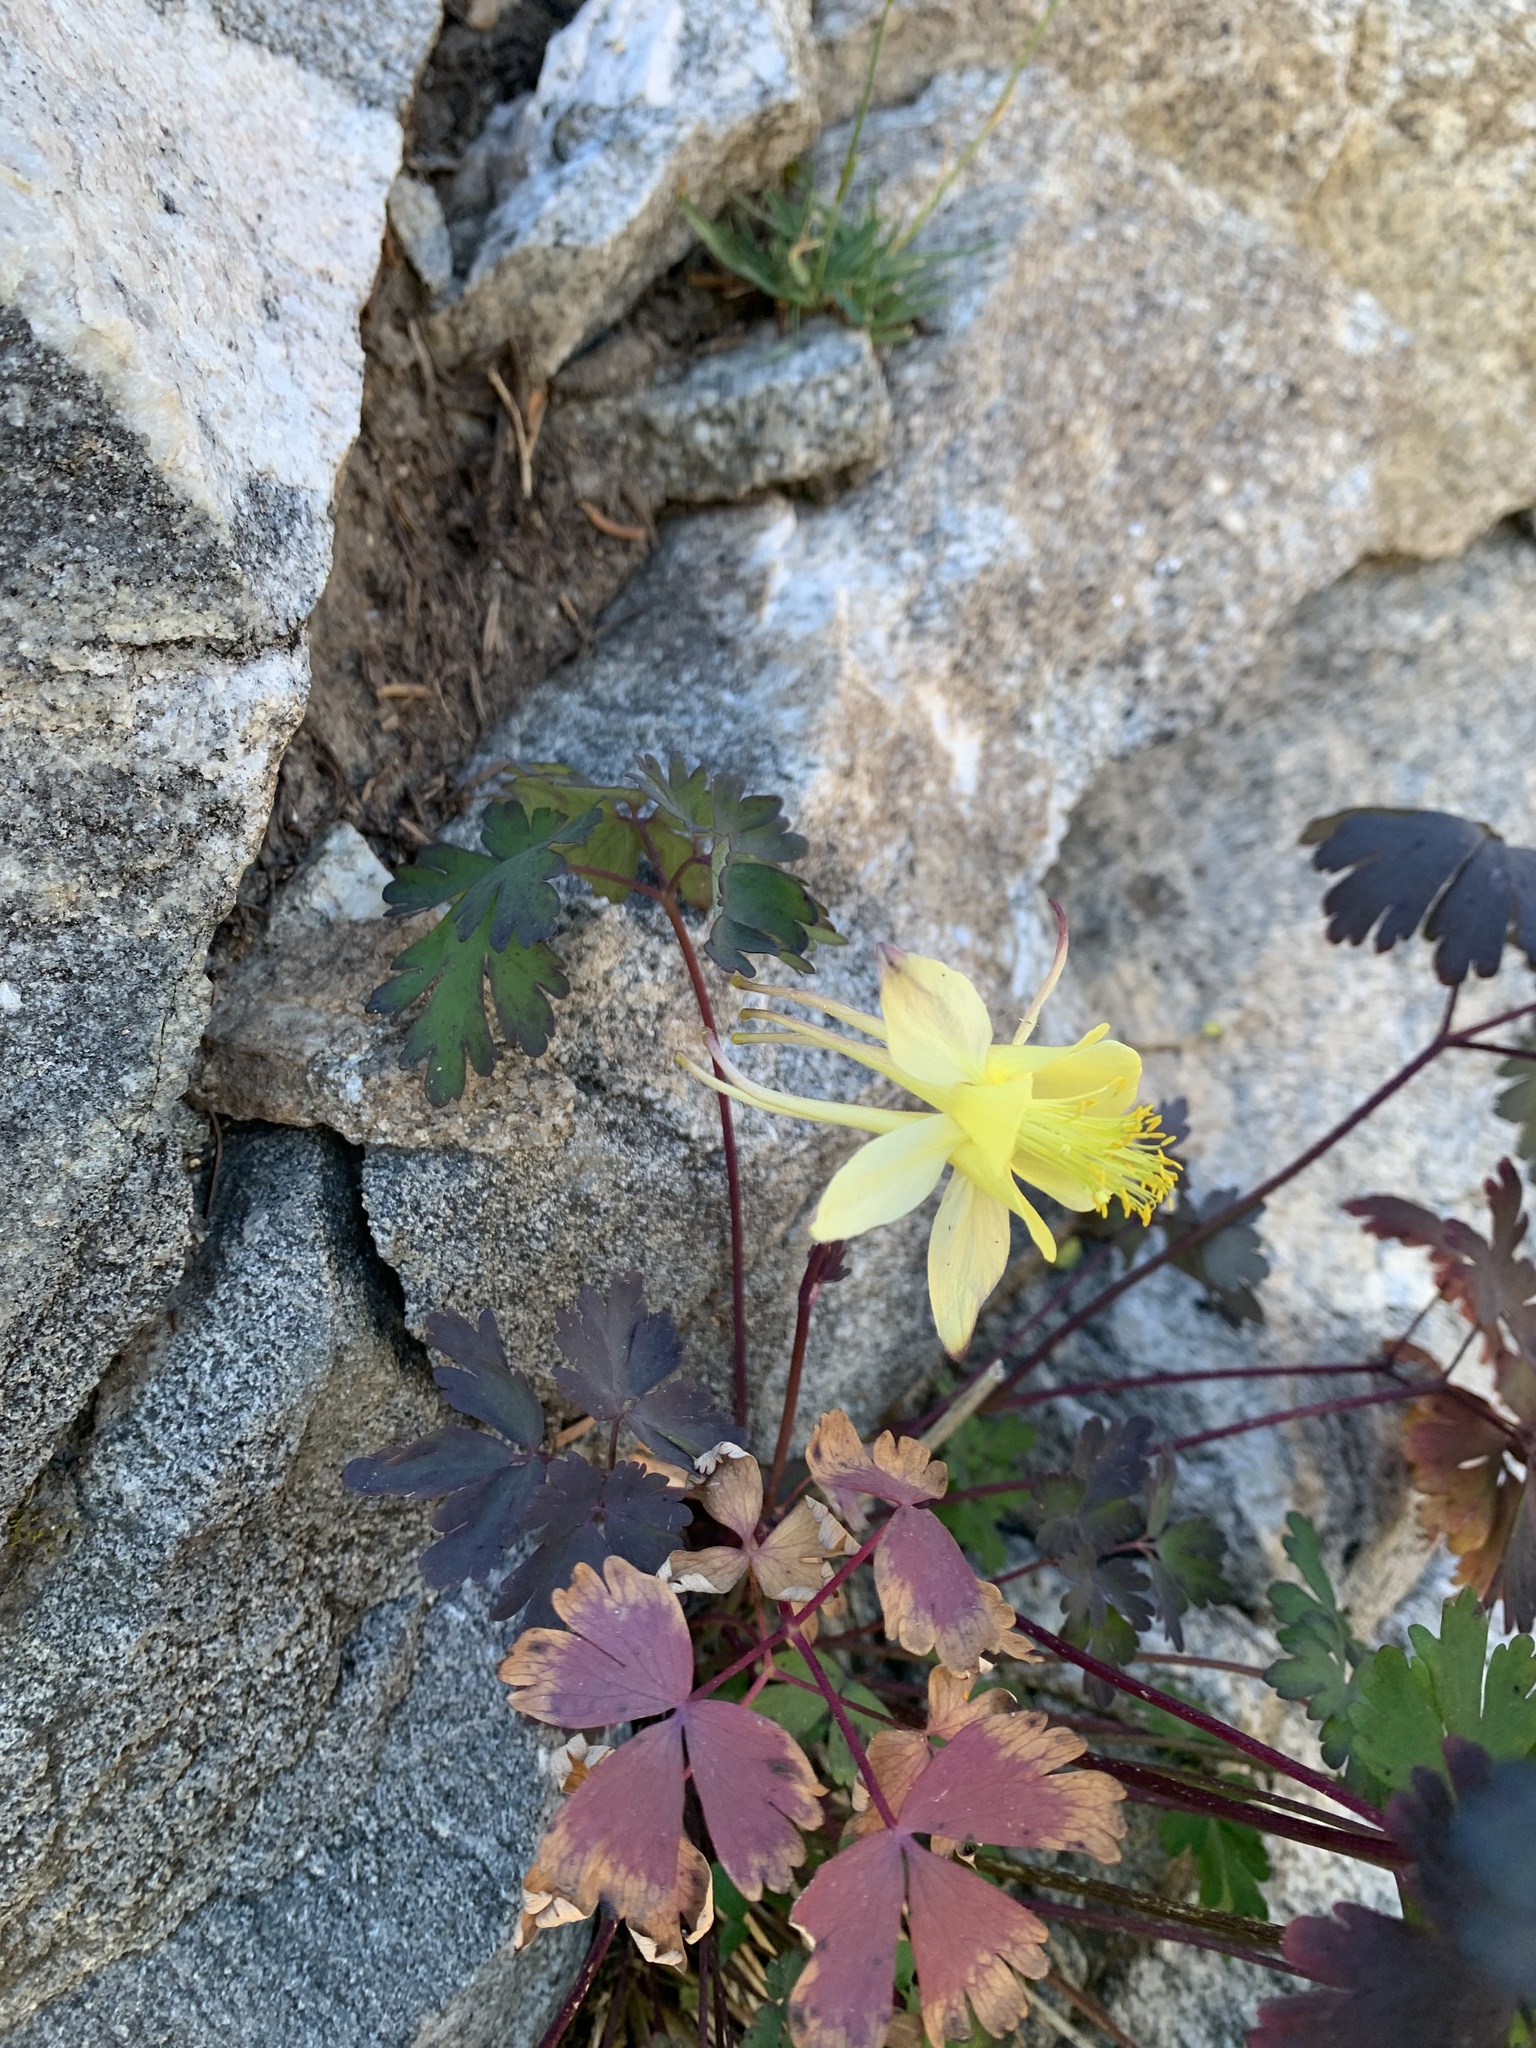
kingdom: Plantae
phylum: Tracheophyta
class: Magnoliopsida
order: Ranunculales
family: Ranunculaceae
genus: Aquilegia
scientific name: Aquilegia
